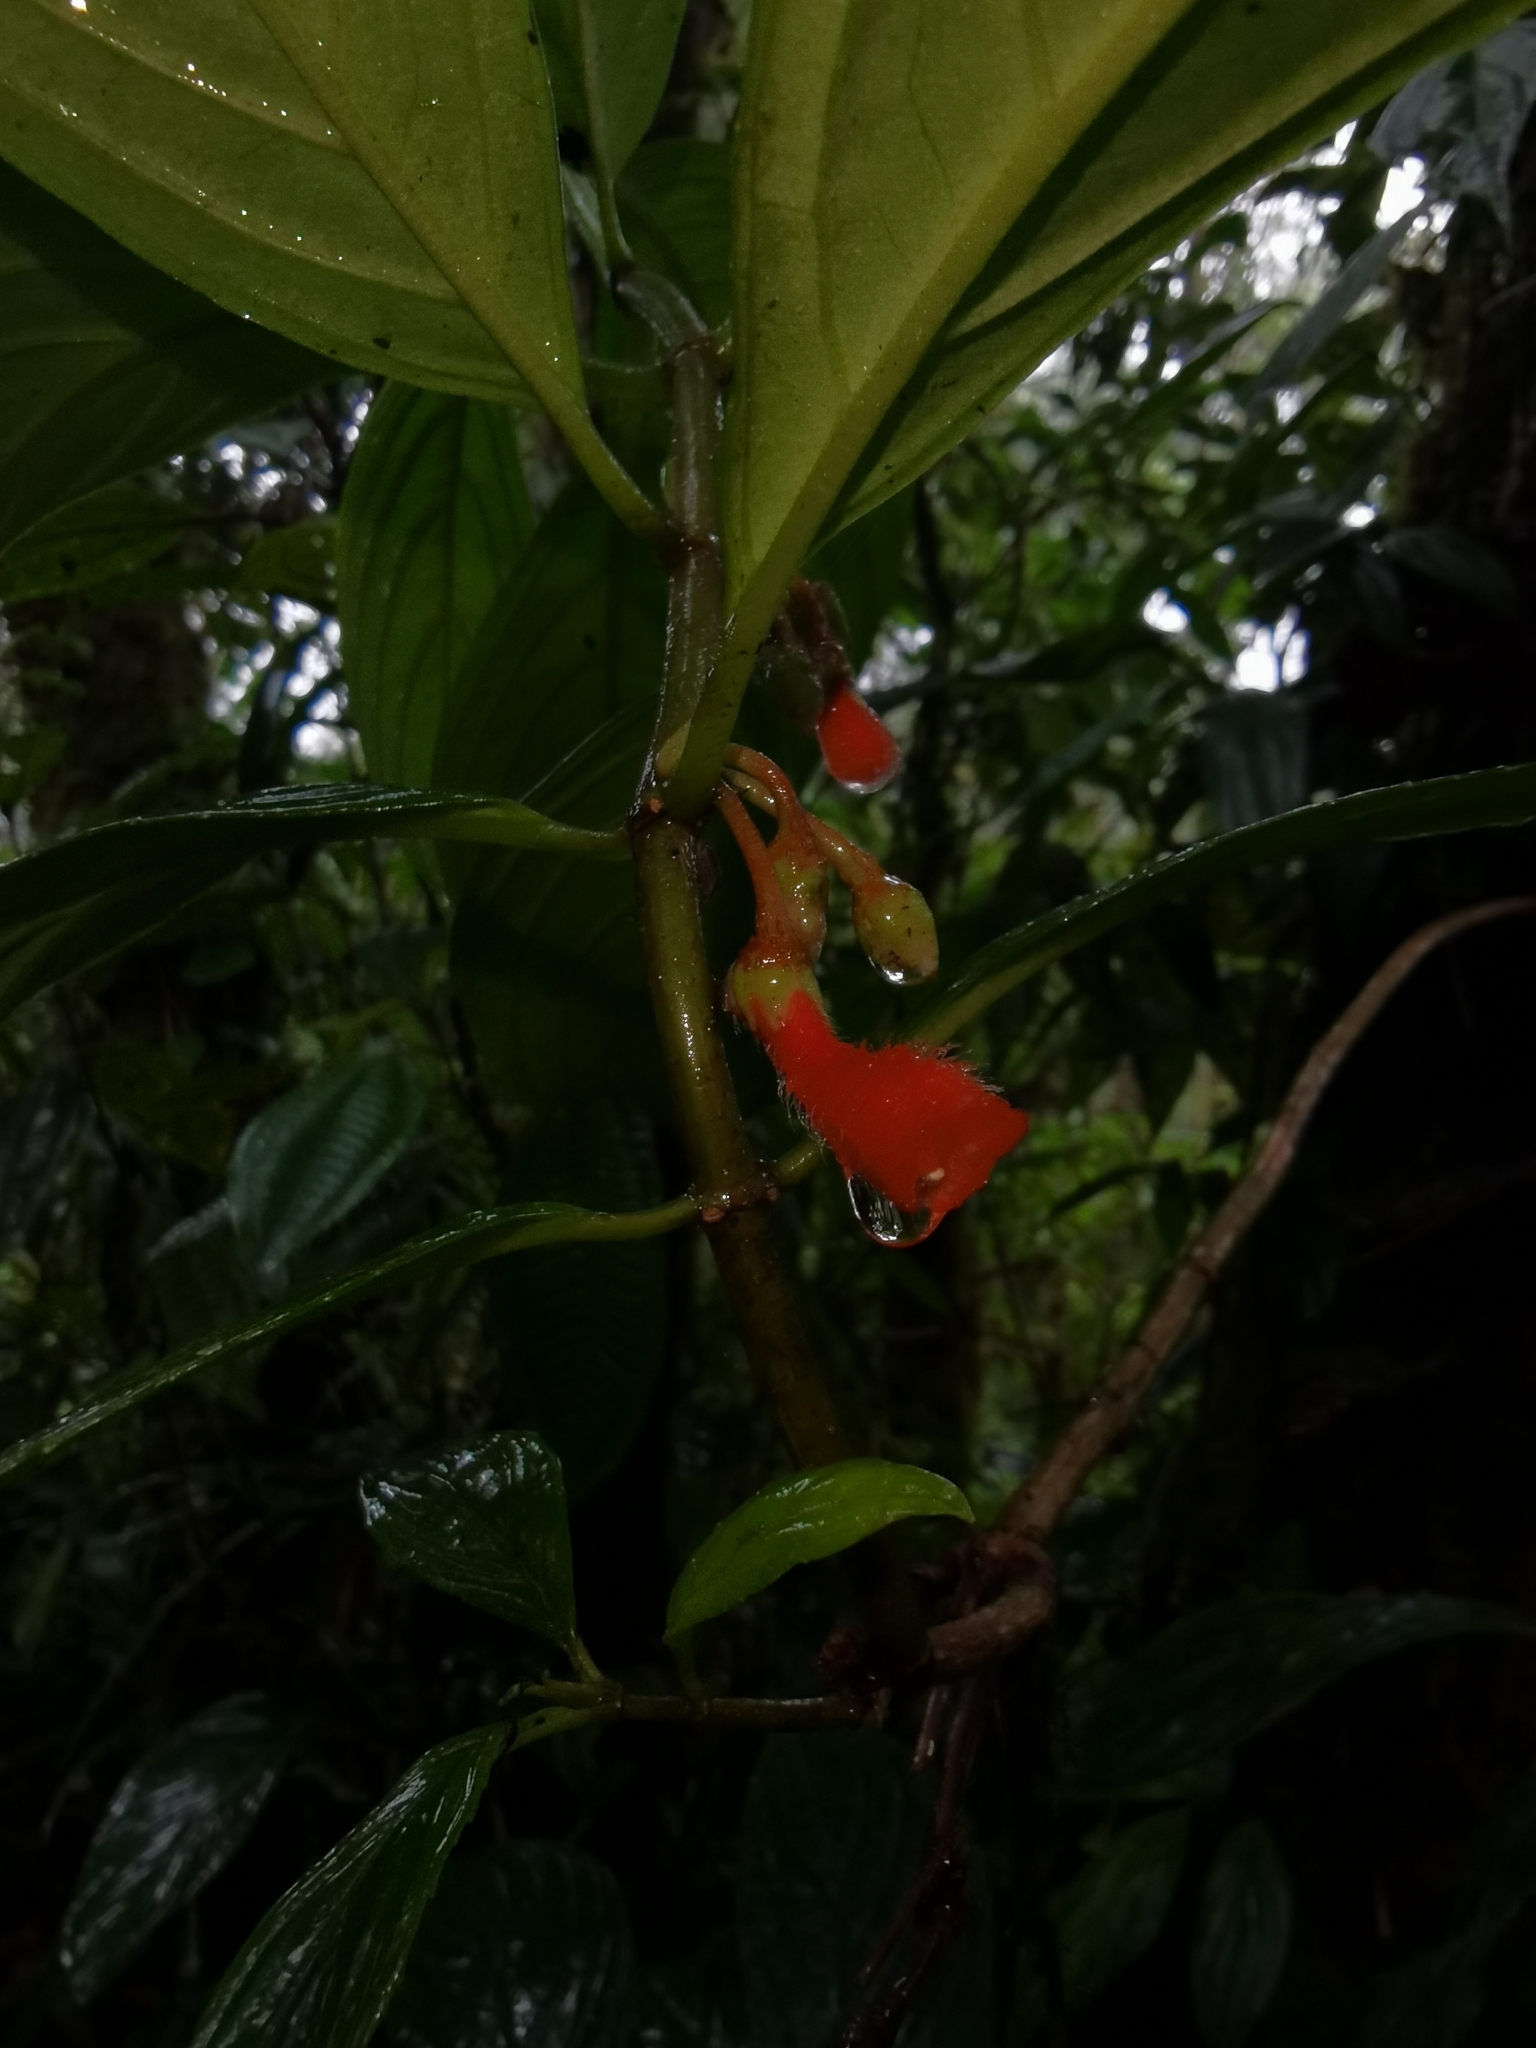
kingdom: Plantae
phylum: Tracheophyta
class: Magnoliopsida
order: Lamiales
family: Gesneriaceae
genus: Glossoloma
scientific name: Glossoloma pycnosuzygium
